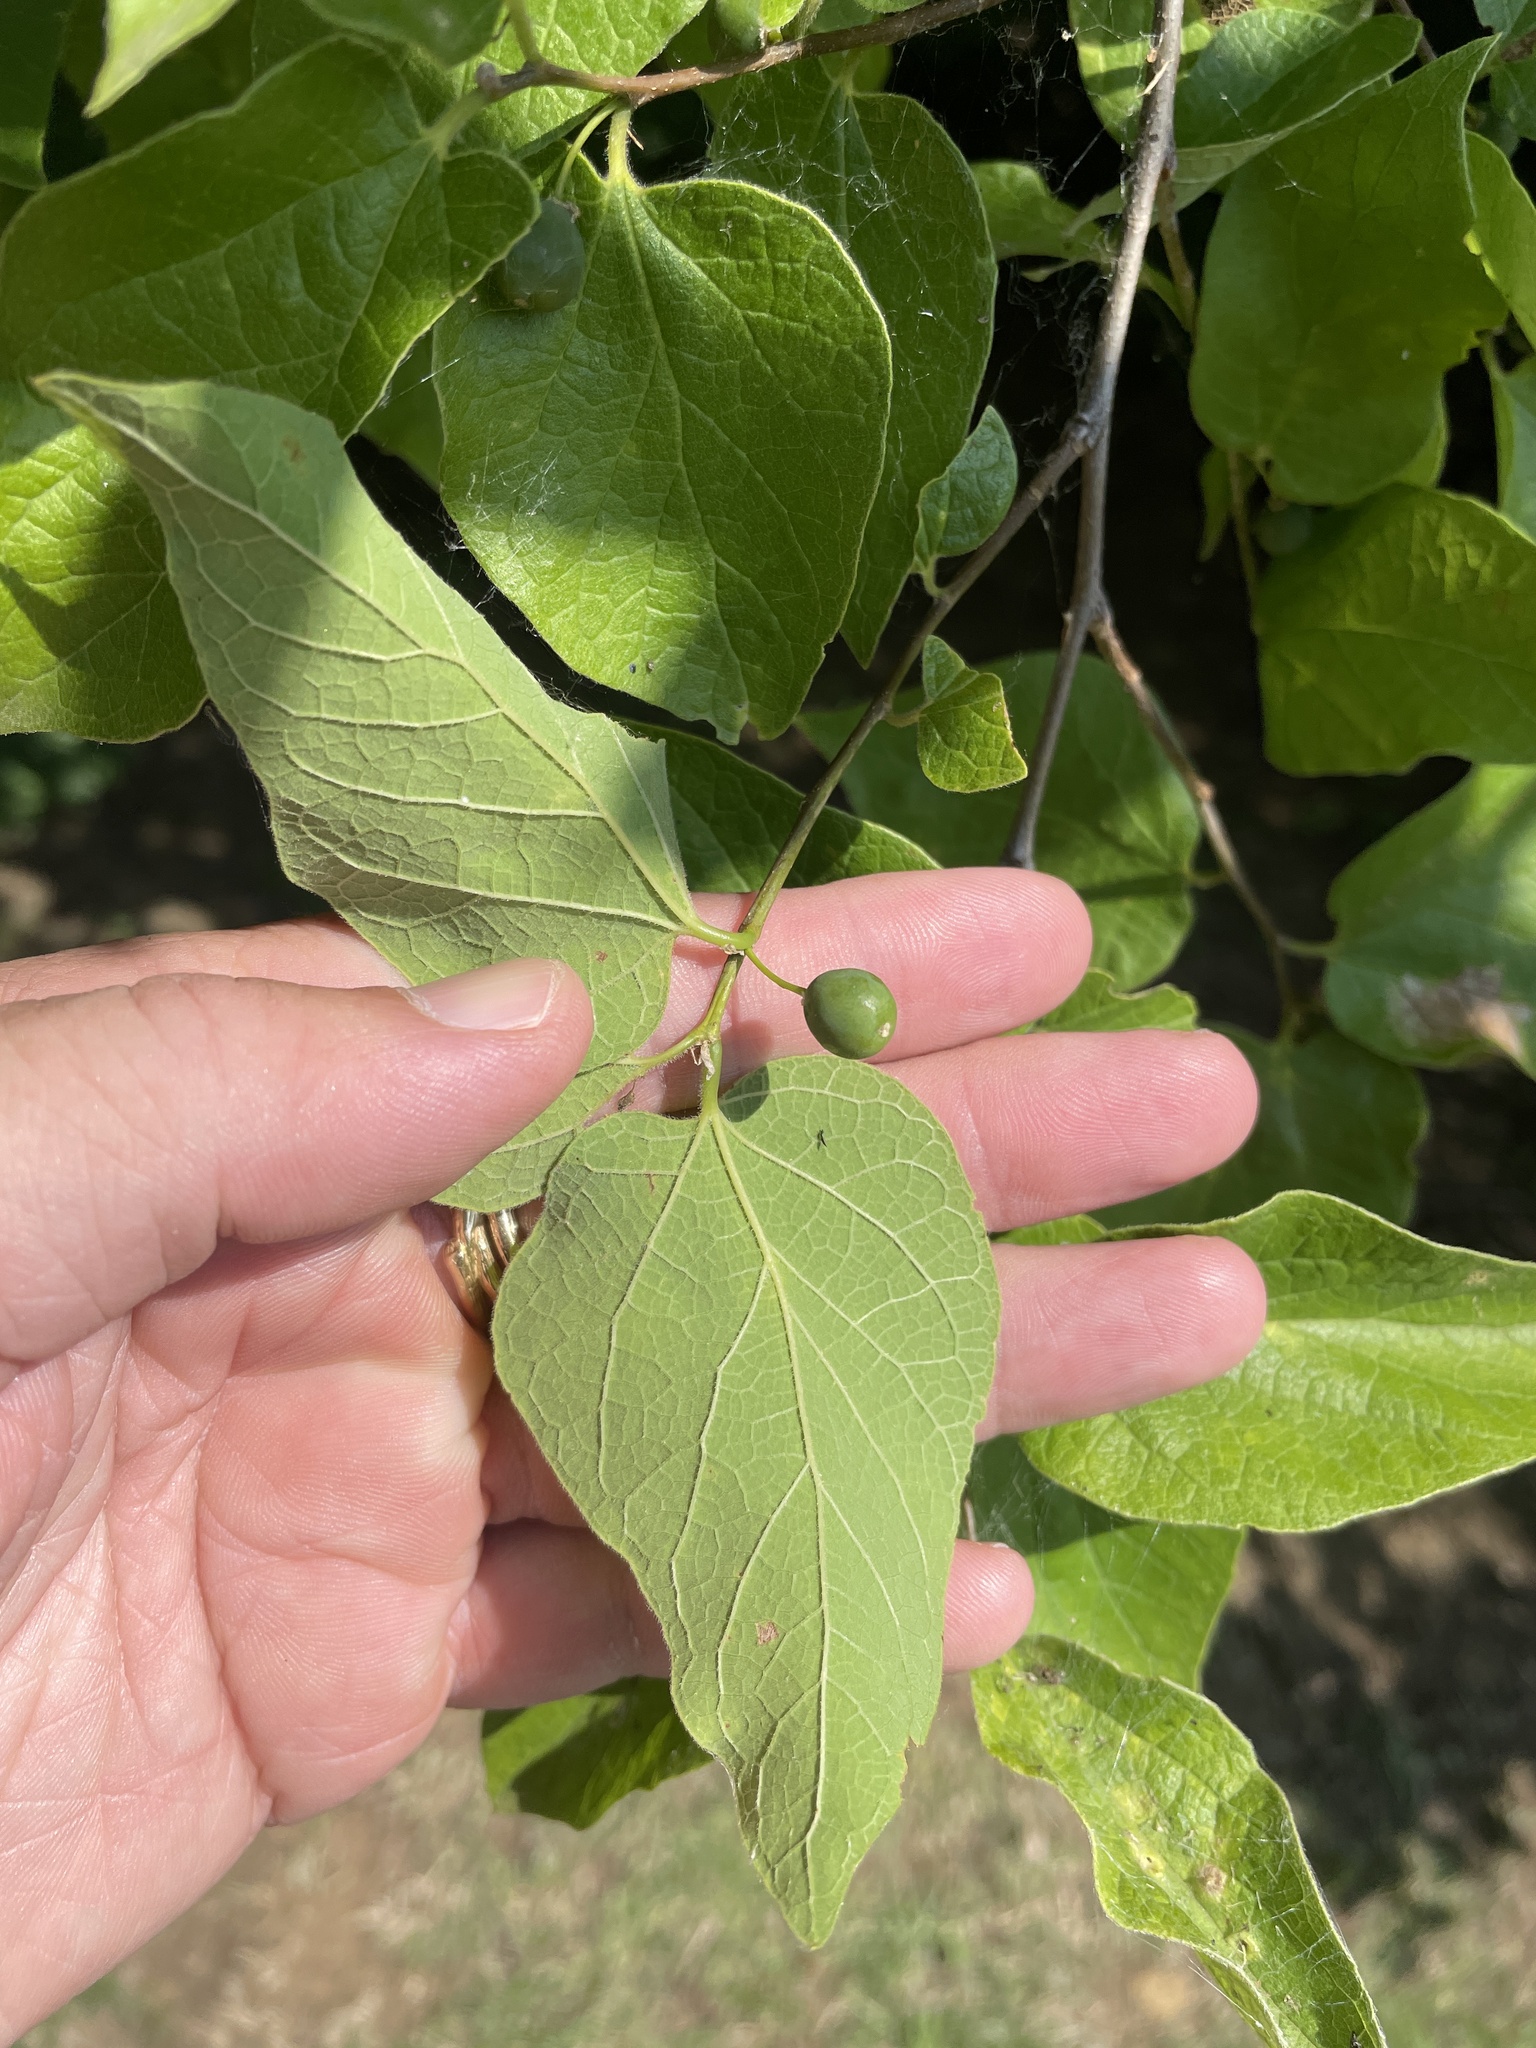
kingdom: Plantae
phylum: Tracheophyta
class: Magnoliopsida
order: Rosales
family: Cannabaceae
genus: Celtis
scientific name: Celtis reticulata
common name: Netleaf hackberry
